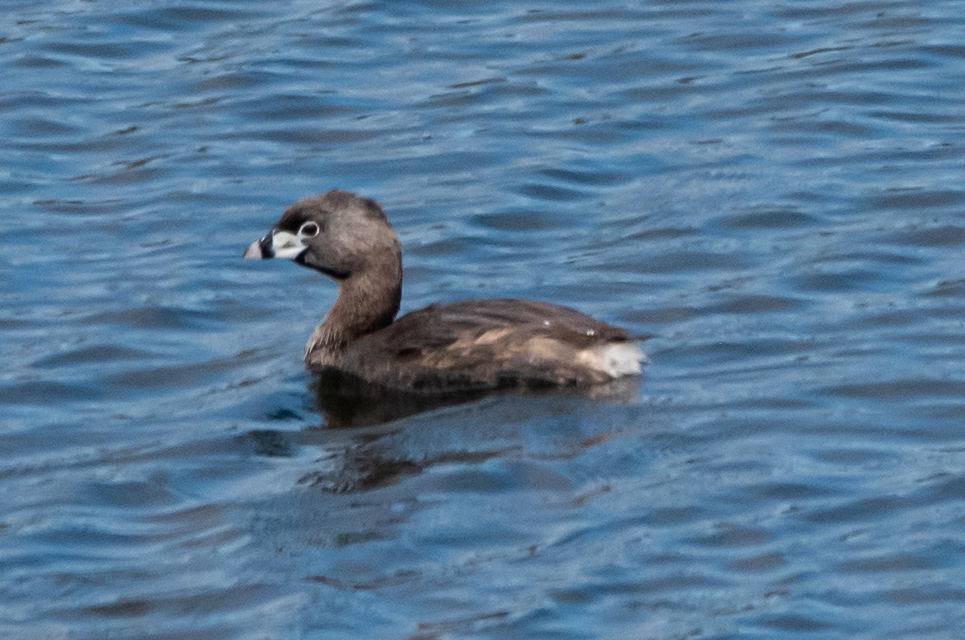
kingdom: Animalia
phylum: Chordata
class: Aves
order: Podicipediformes
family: Podicipedidae
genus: Podilymbus
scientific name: Podilymbus podiceps
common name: Pied-billed grebe
